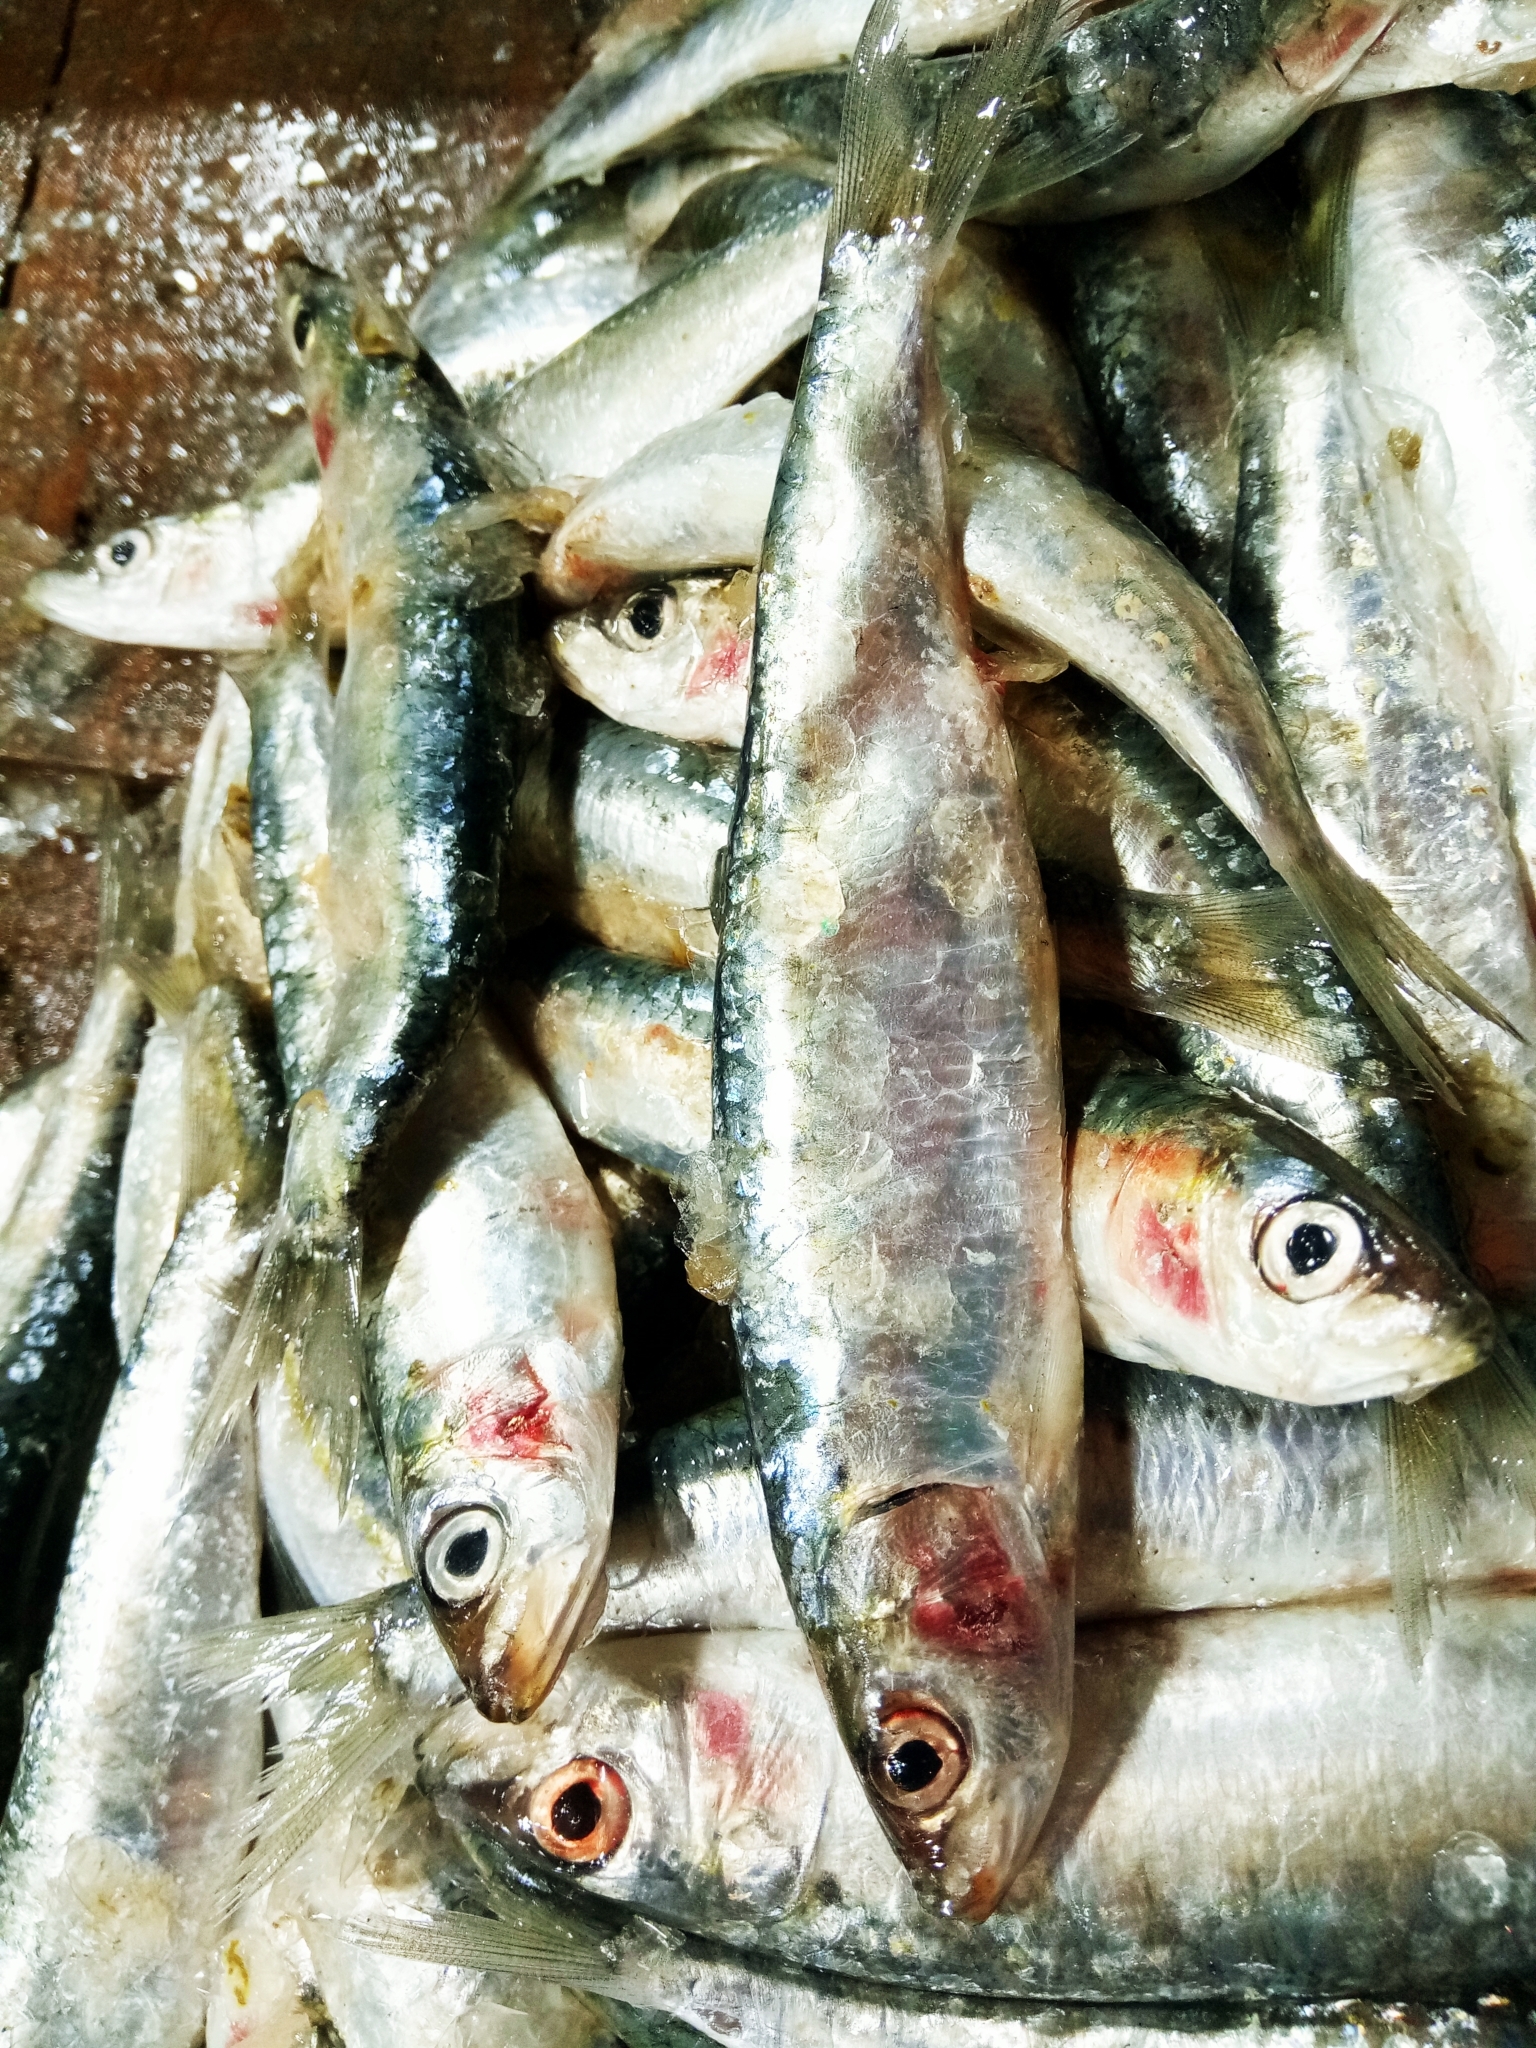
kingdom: Animalia
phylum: Chordata
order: Clupeiformes
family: Clupeidae
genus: Sardina
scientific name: Sardina pilchardus
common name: Pilchard
